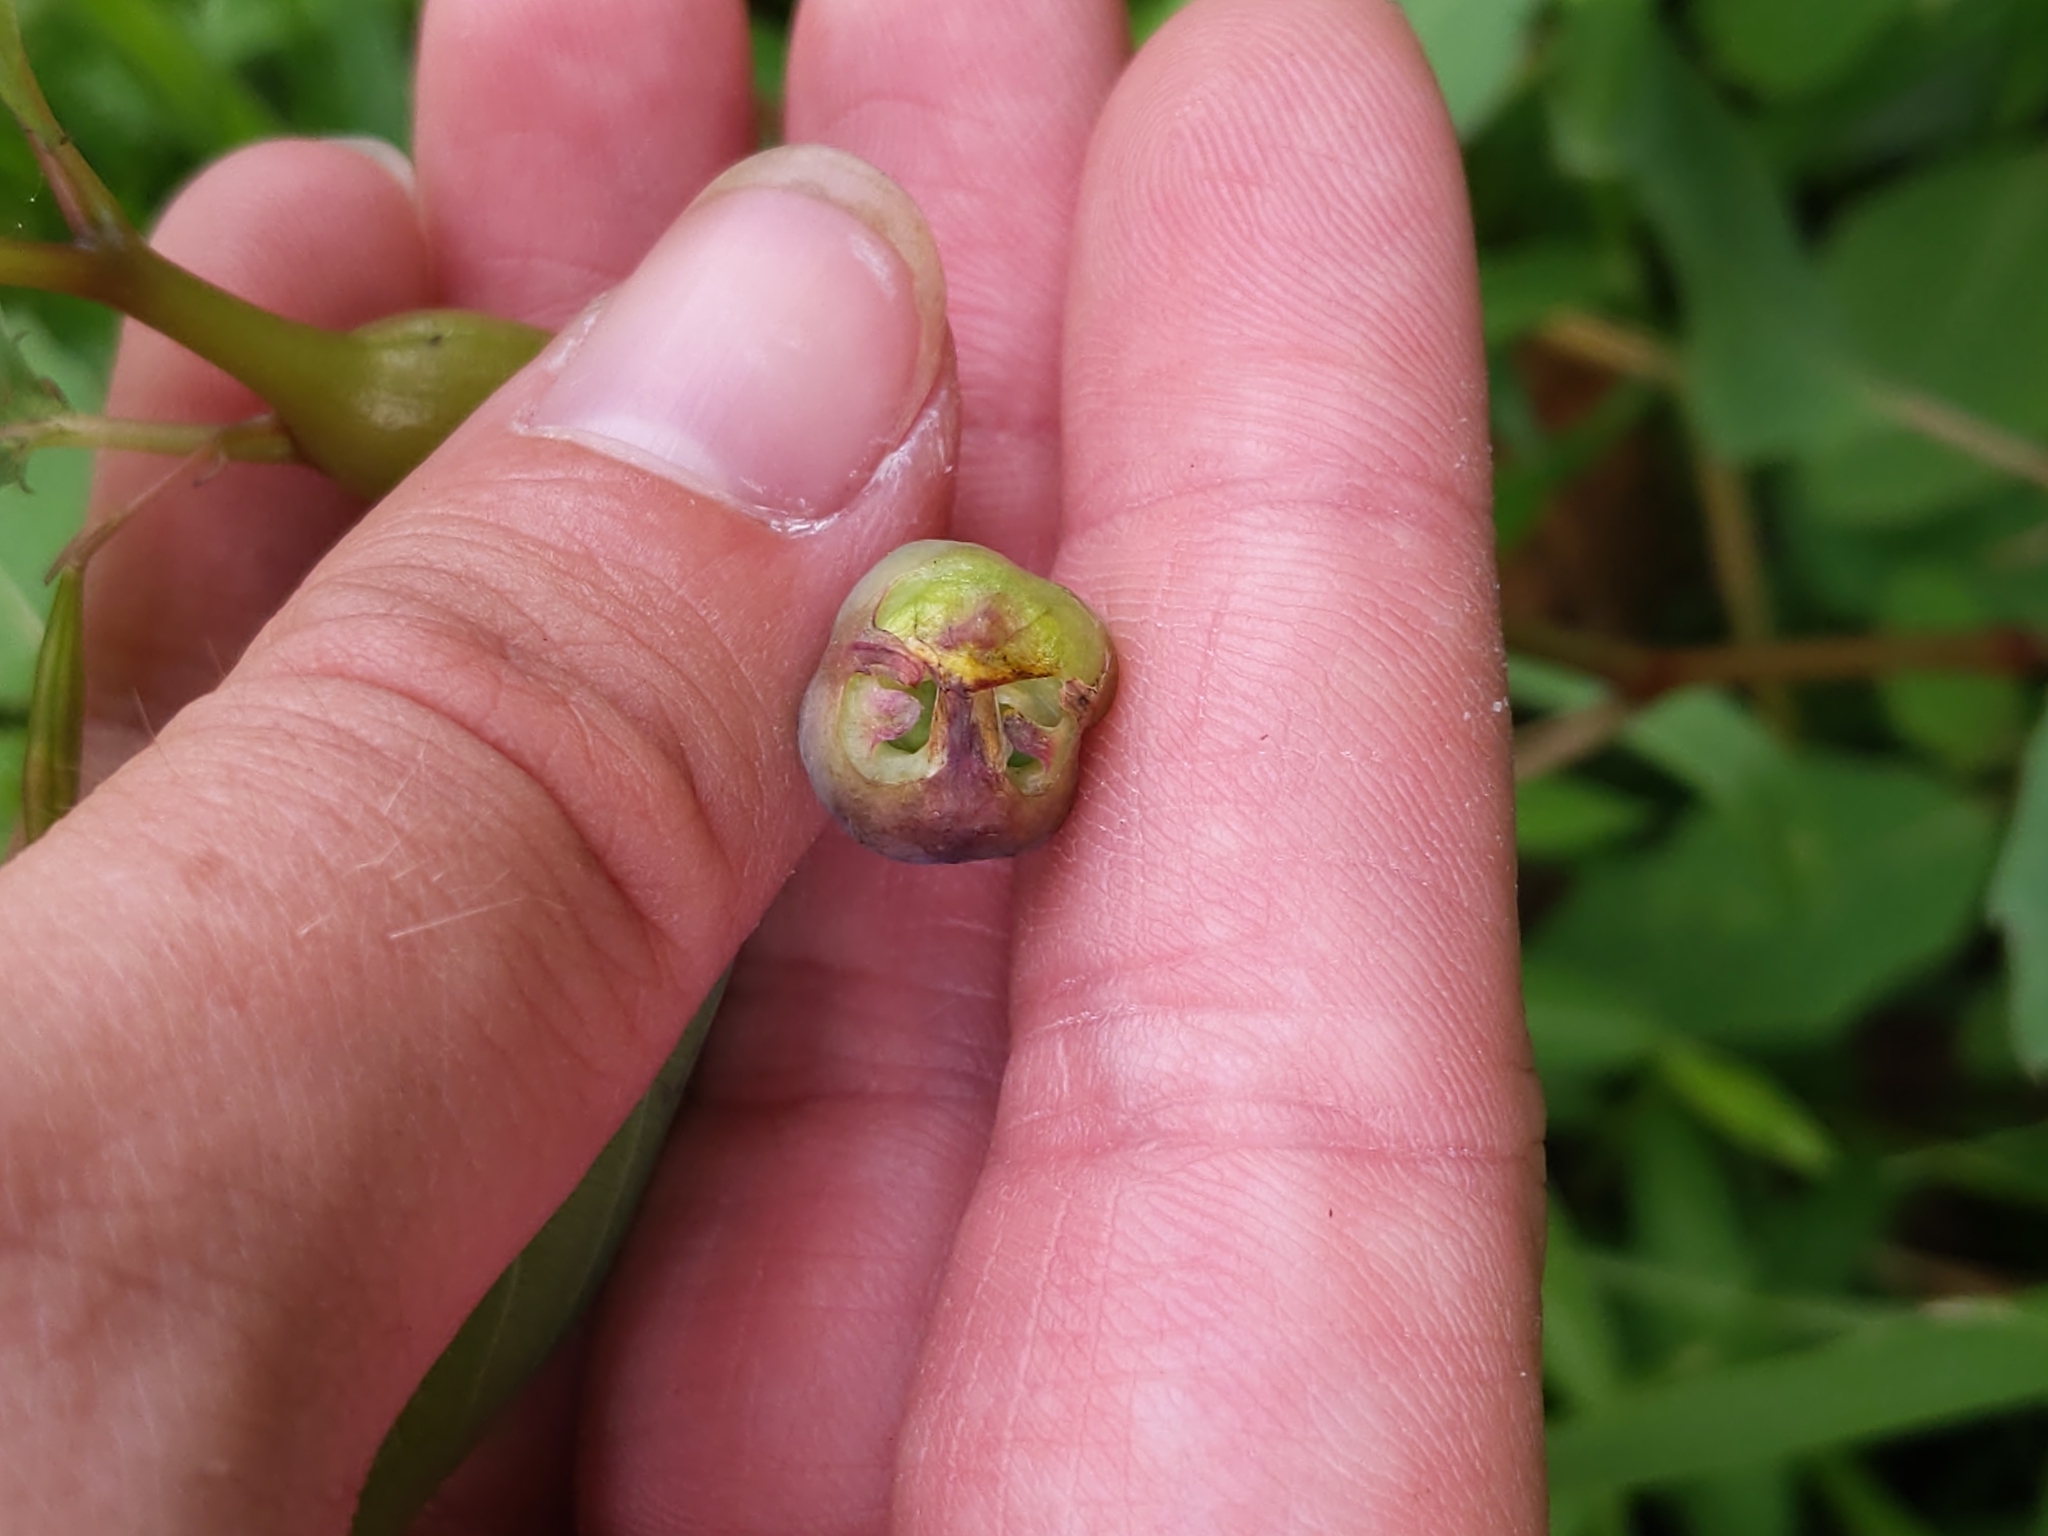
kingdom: Animalia
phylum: Arthropoda
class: Insecta
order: Diptera
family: Cecidomyiidae
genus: Schizomyia
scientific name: Schizomyia impatientis
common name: Jewelweed gall midge
